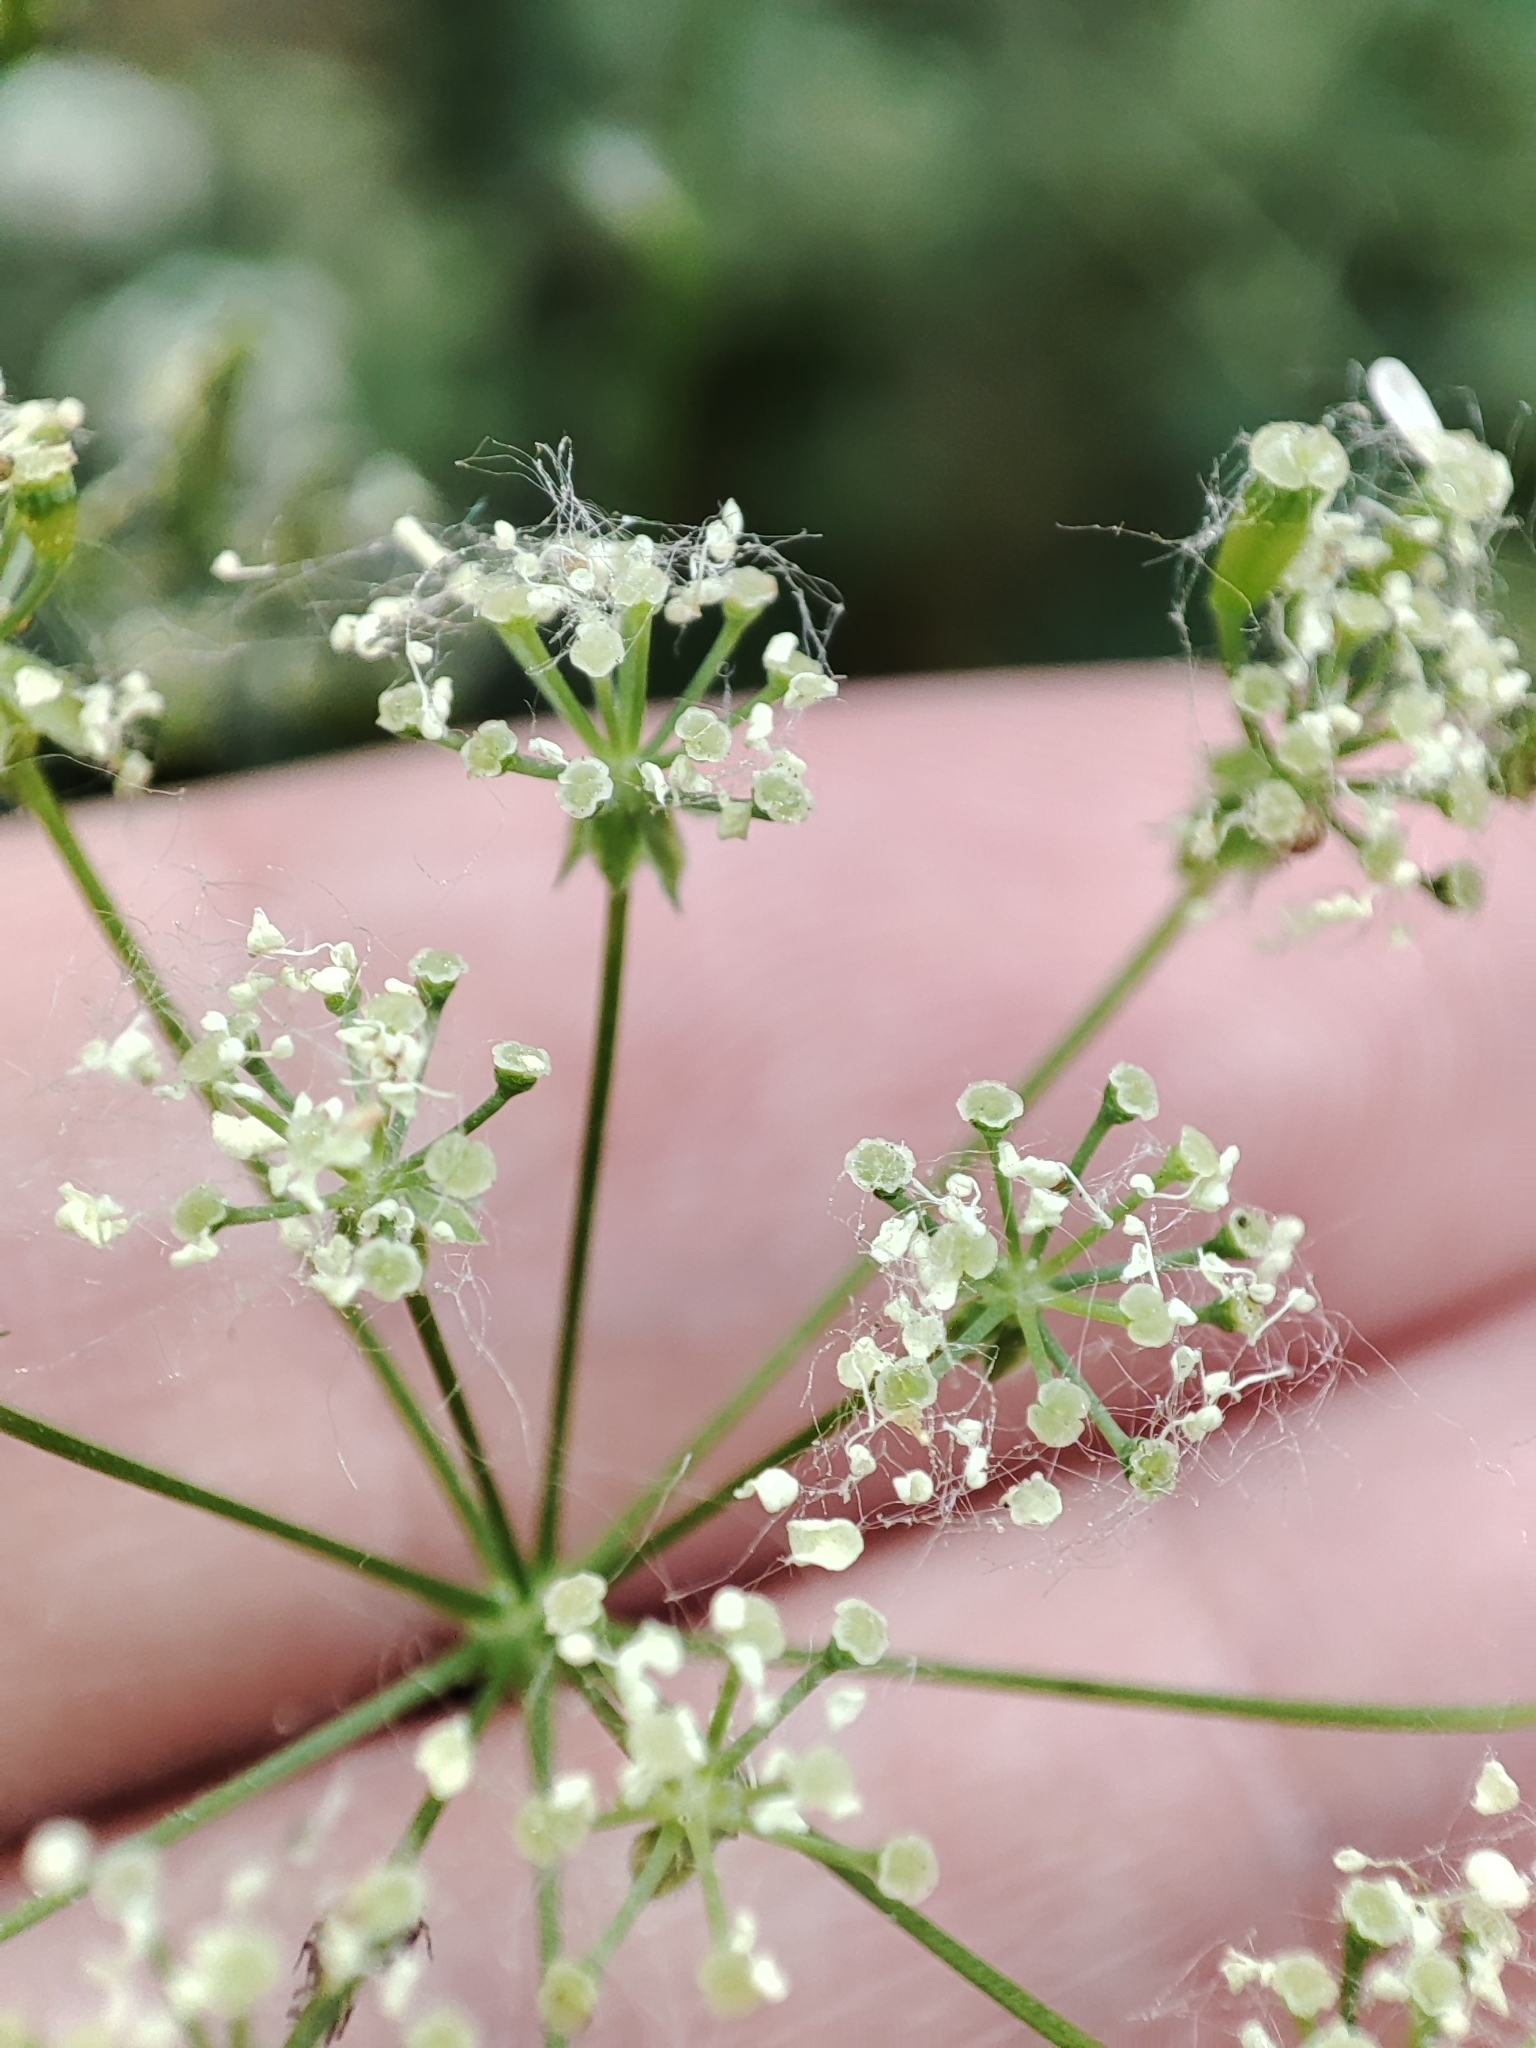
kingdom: Plantae
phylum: Tracheophyta
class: Magnoliopsida
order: Apiales
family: Apiaceae
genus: Anthriscus
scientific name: Anthriscus sylvestris
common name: Cow parsley
